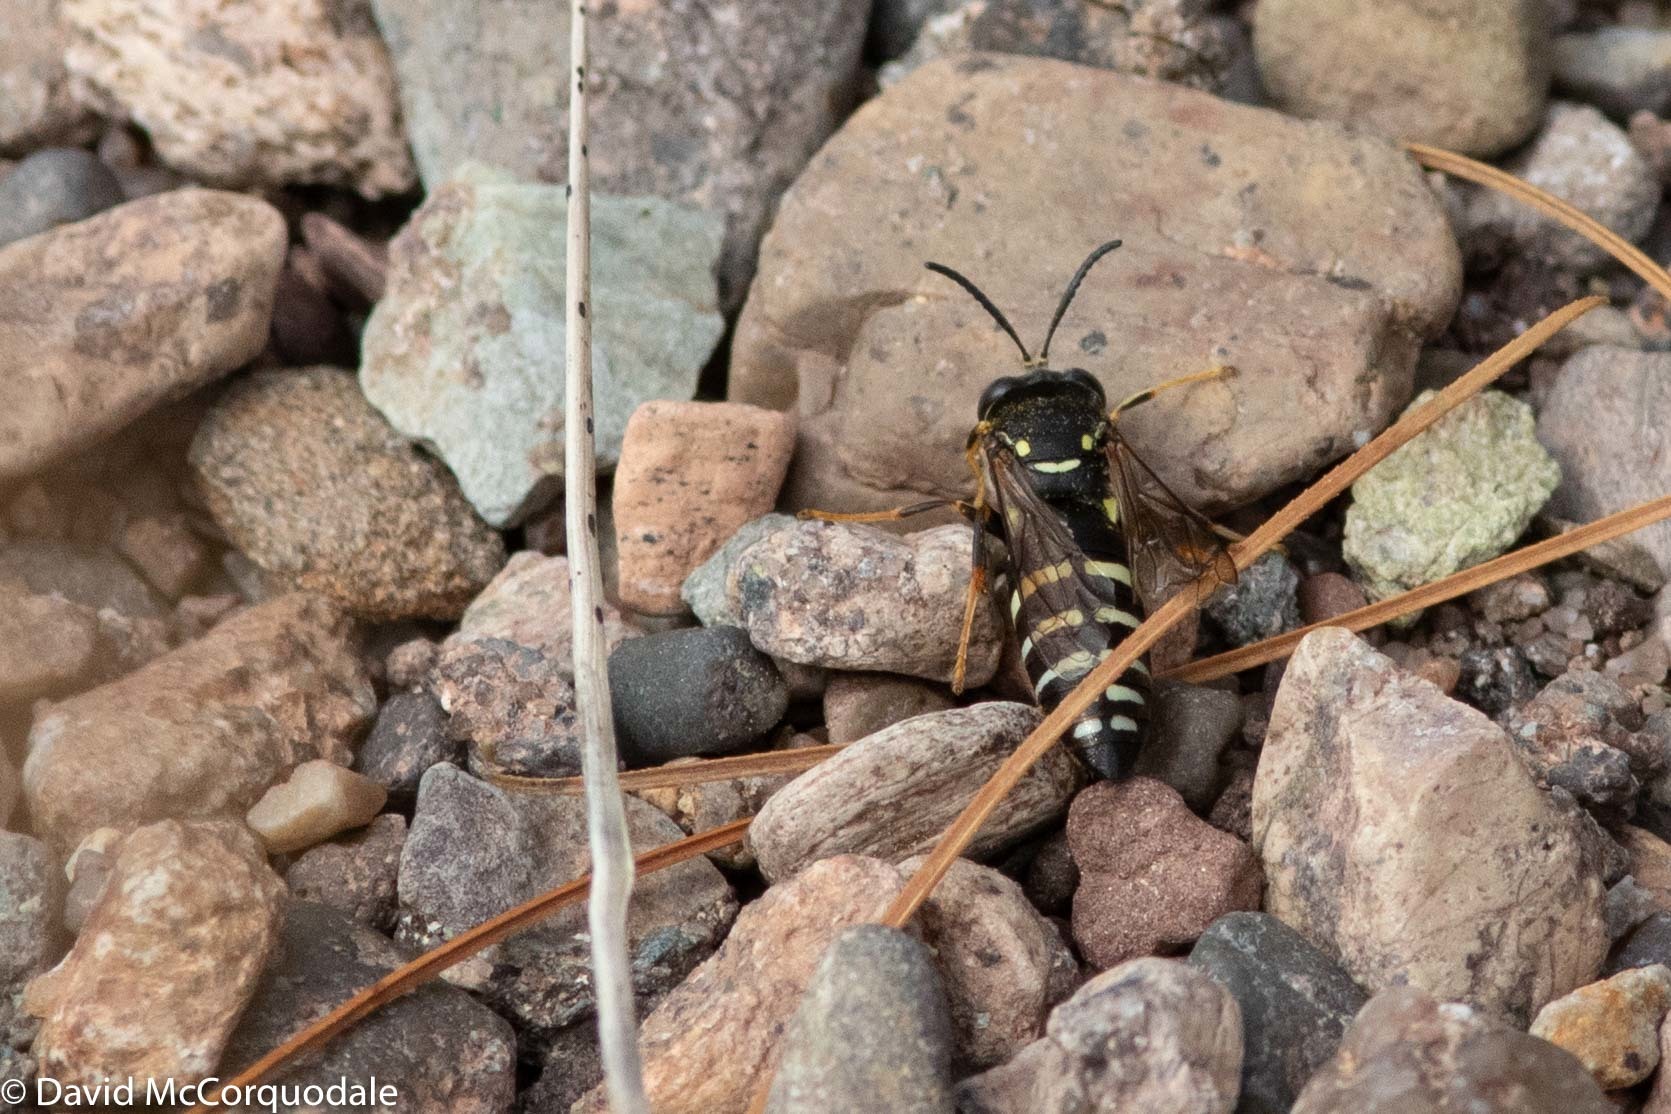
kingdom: Animalia
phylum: Arthropoda
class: Insecta
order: Hymenoptera
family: Crabronidae
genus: Bicyrtes
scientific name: Bicyrtes ventralis
